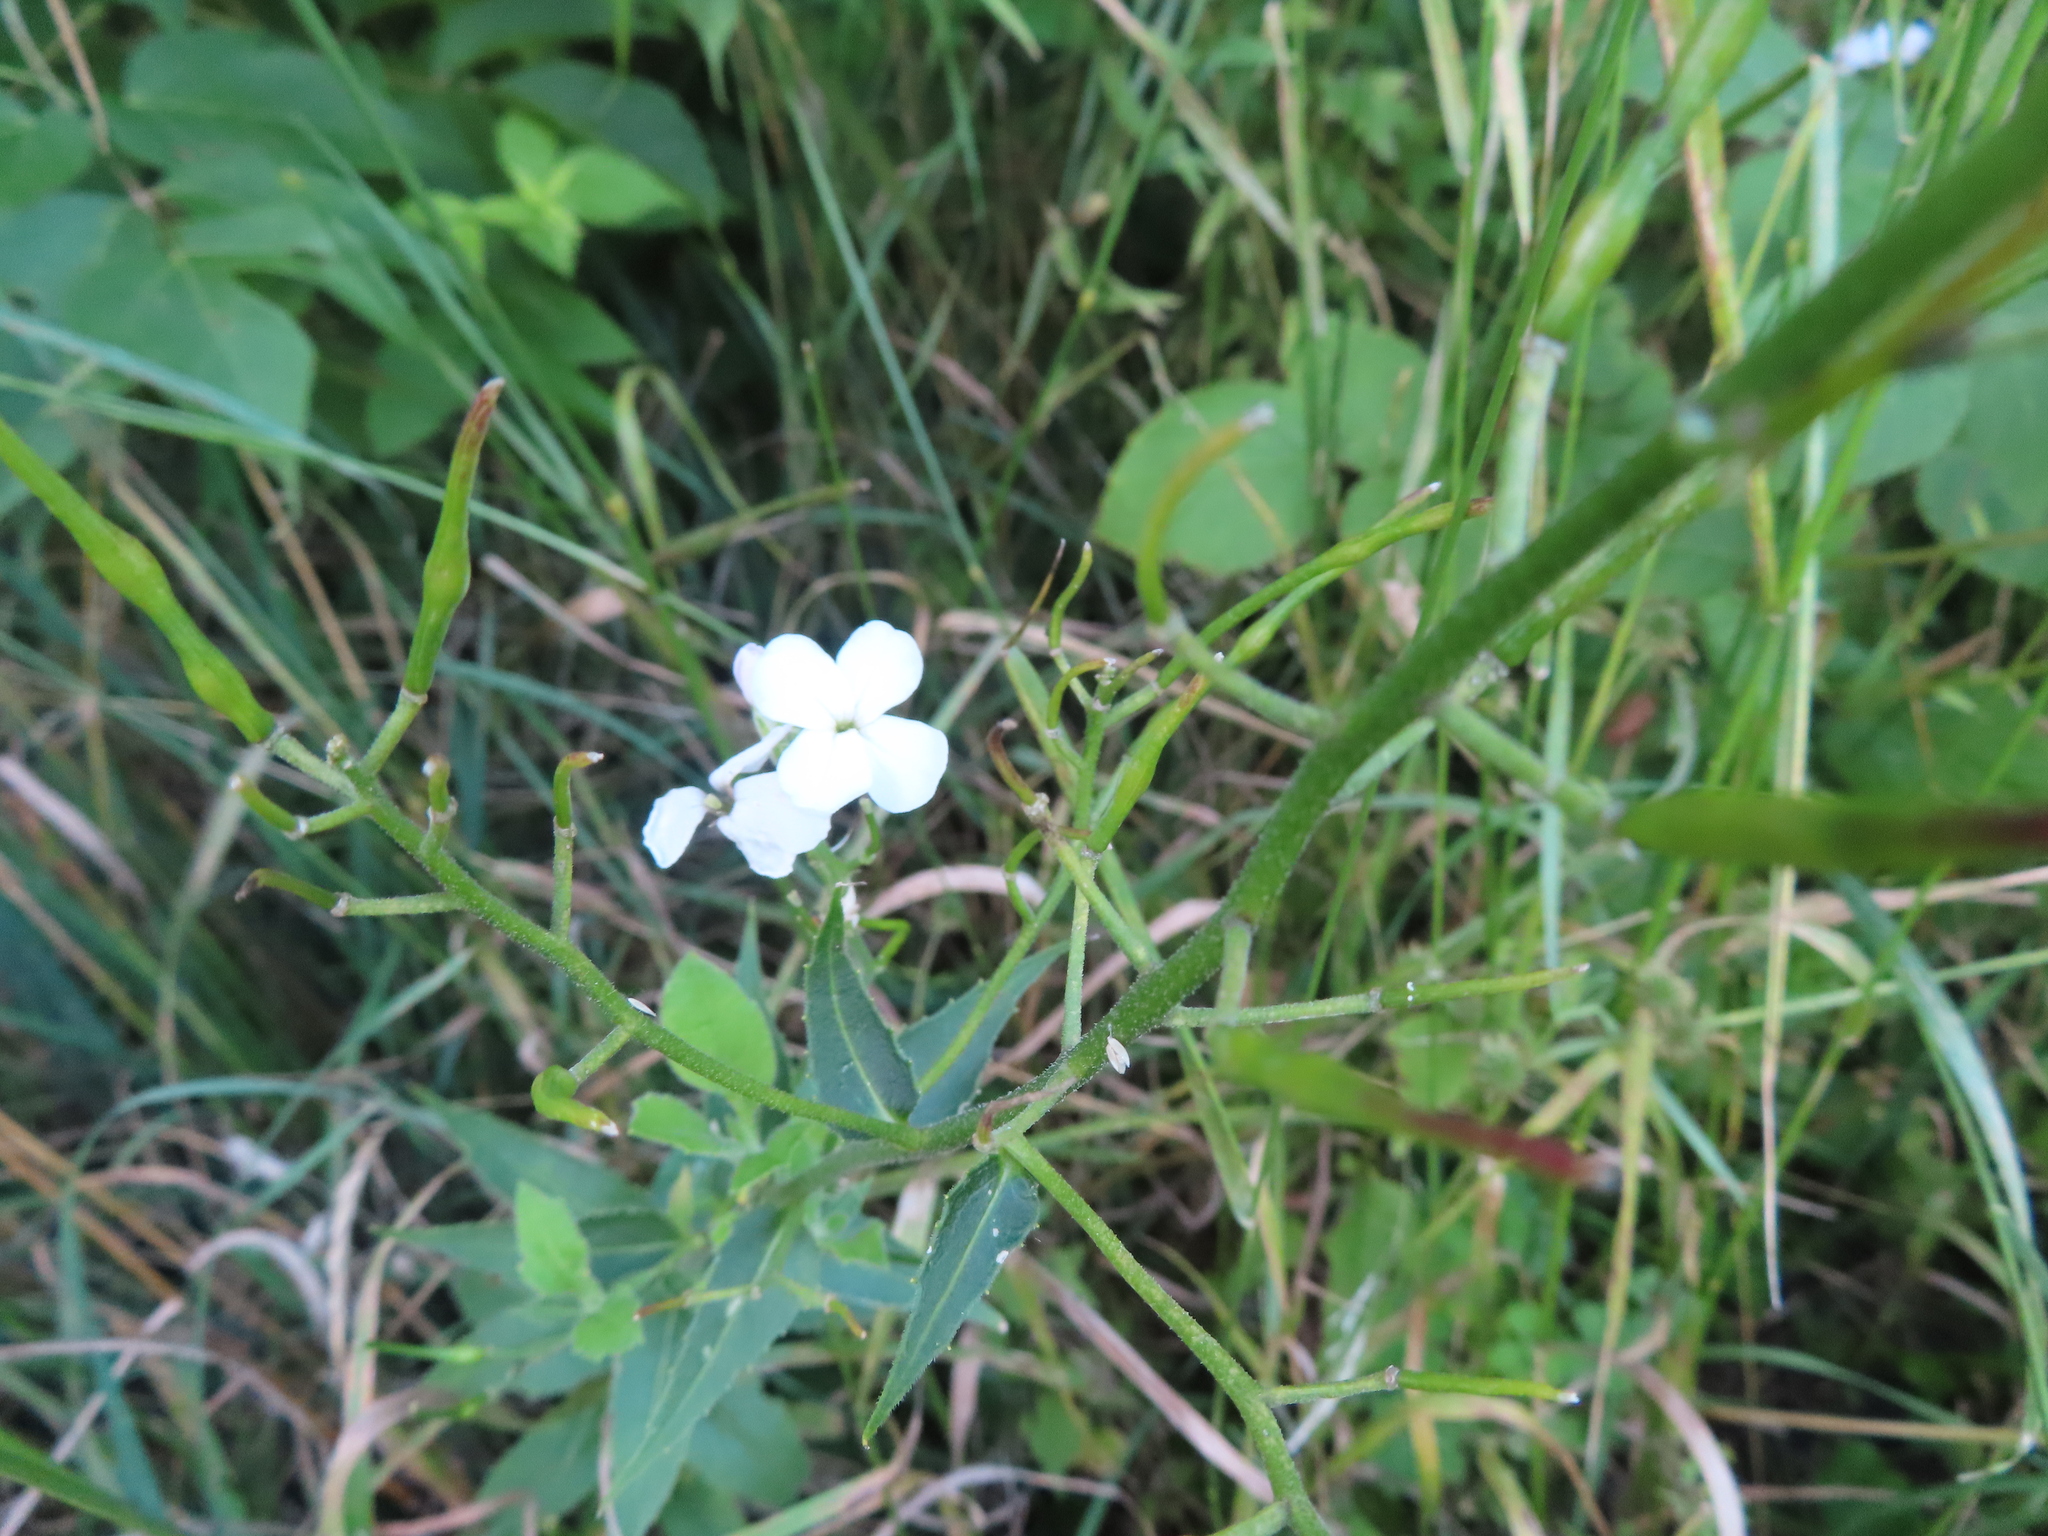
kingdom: Plantae
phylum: Tracheophyta
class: Magnoliopsida
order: Brassicales
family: Brassicaceae
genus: Hesperis
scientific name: Hesperis matronalis
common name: Dame's-violet
